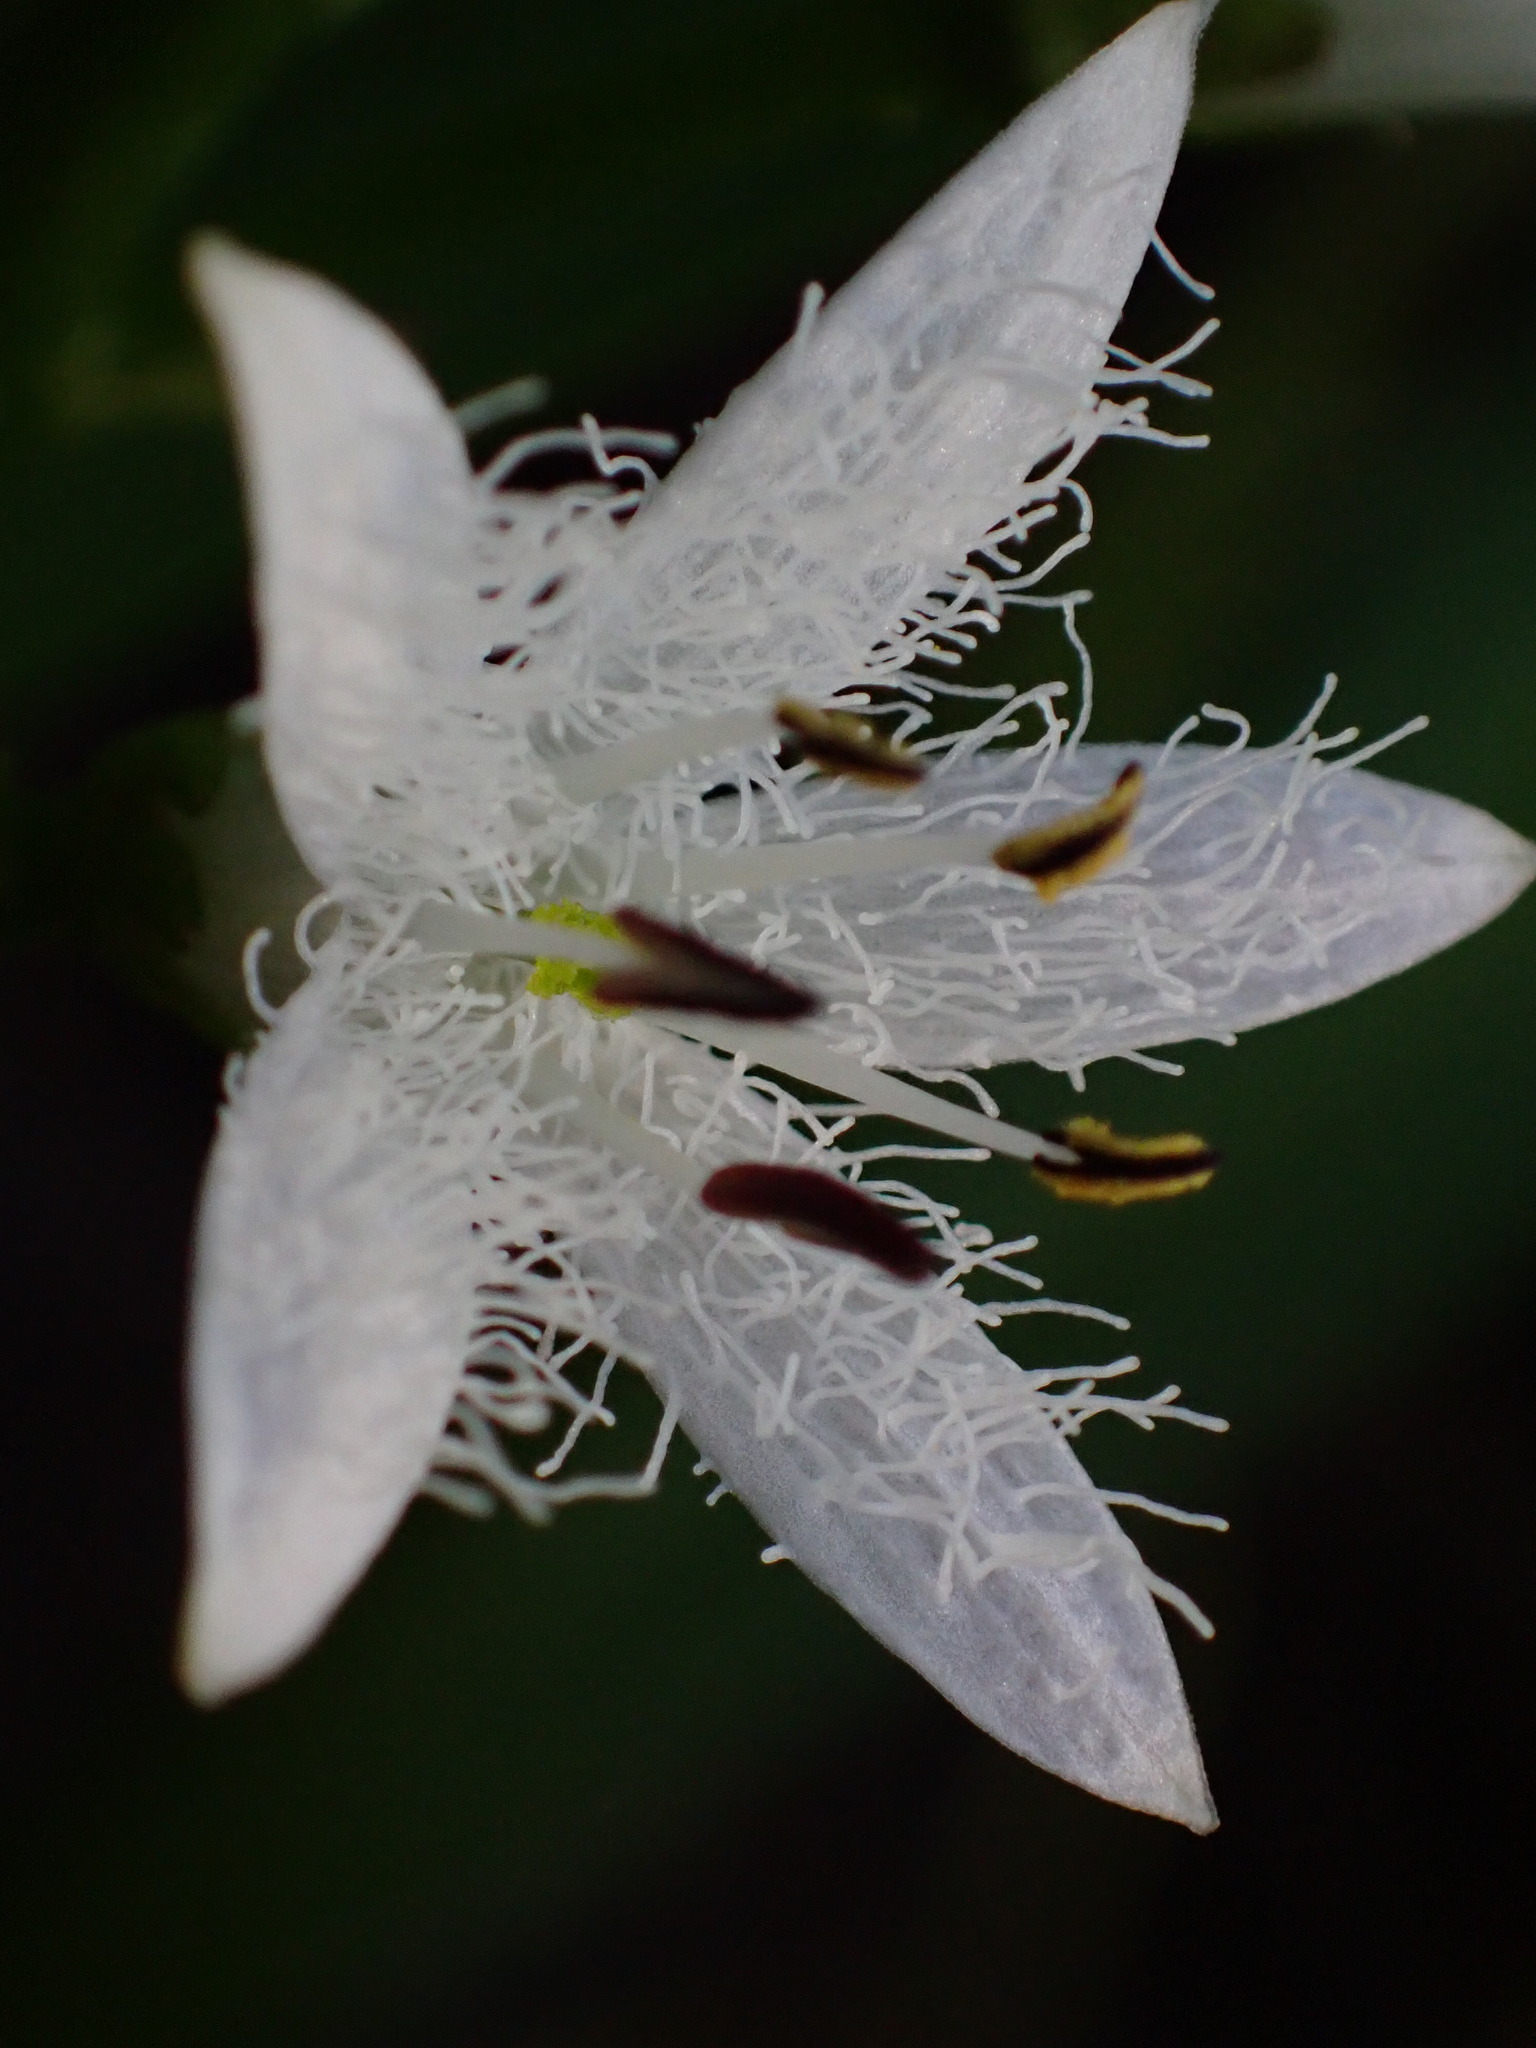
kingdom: Plantae
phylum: Tracheophyta
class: Magnoliopsida
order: Asterales
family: Menyanthaceae
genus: Menyanthes
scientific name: Menyanthes trifoliata
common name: Bogbean
